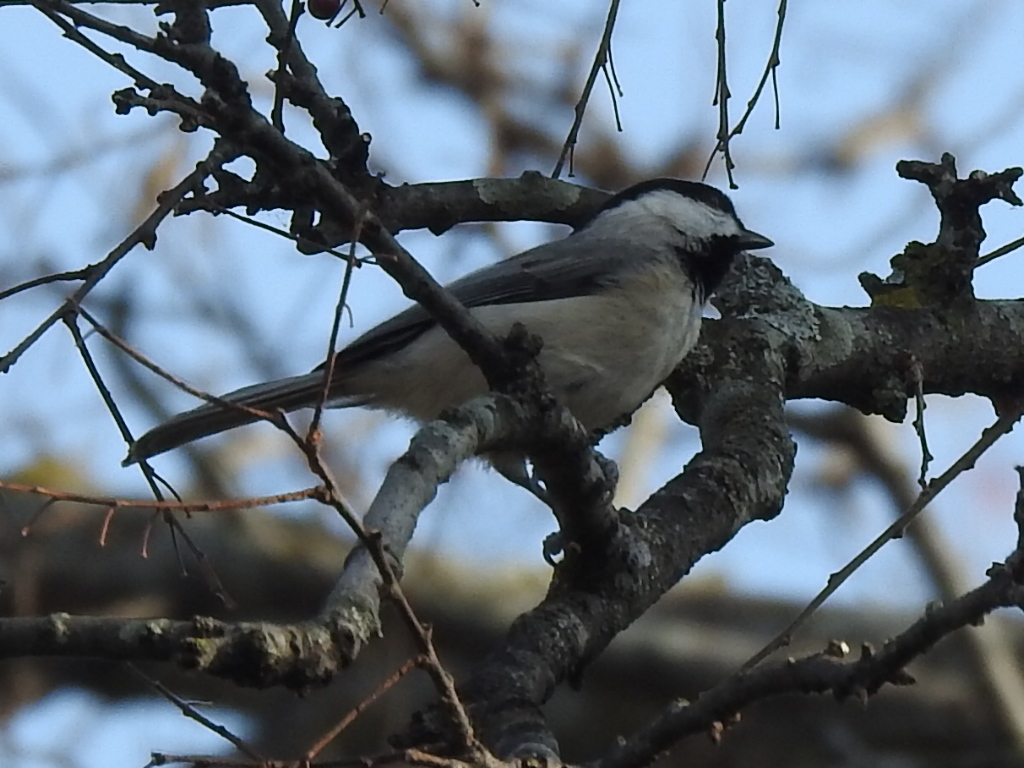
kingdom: Animalia
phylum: Chordata
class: Aves
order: Passeriformes
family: Paridae
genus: Poecile
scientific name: Poecile carolinensis
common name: Carolina chickadee
